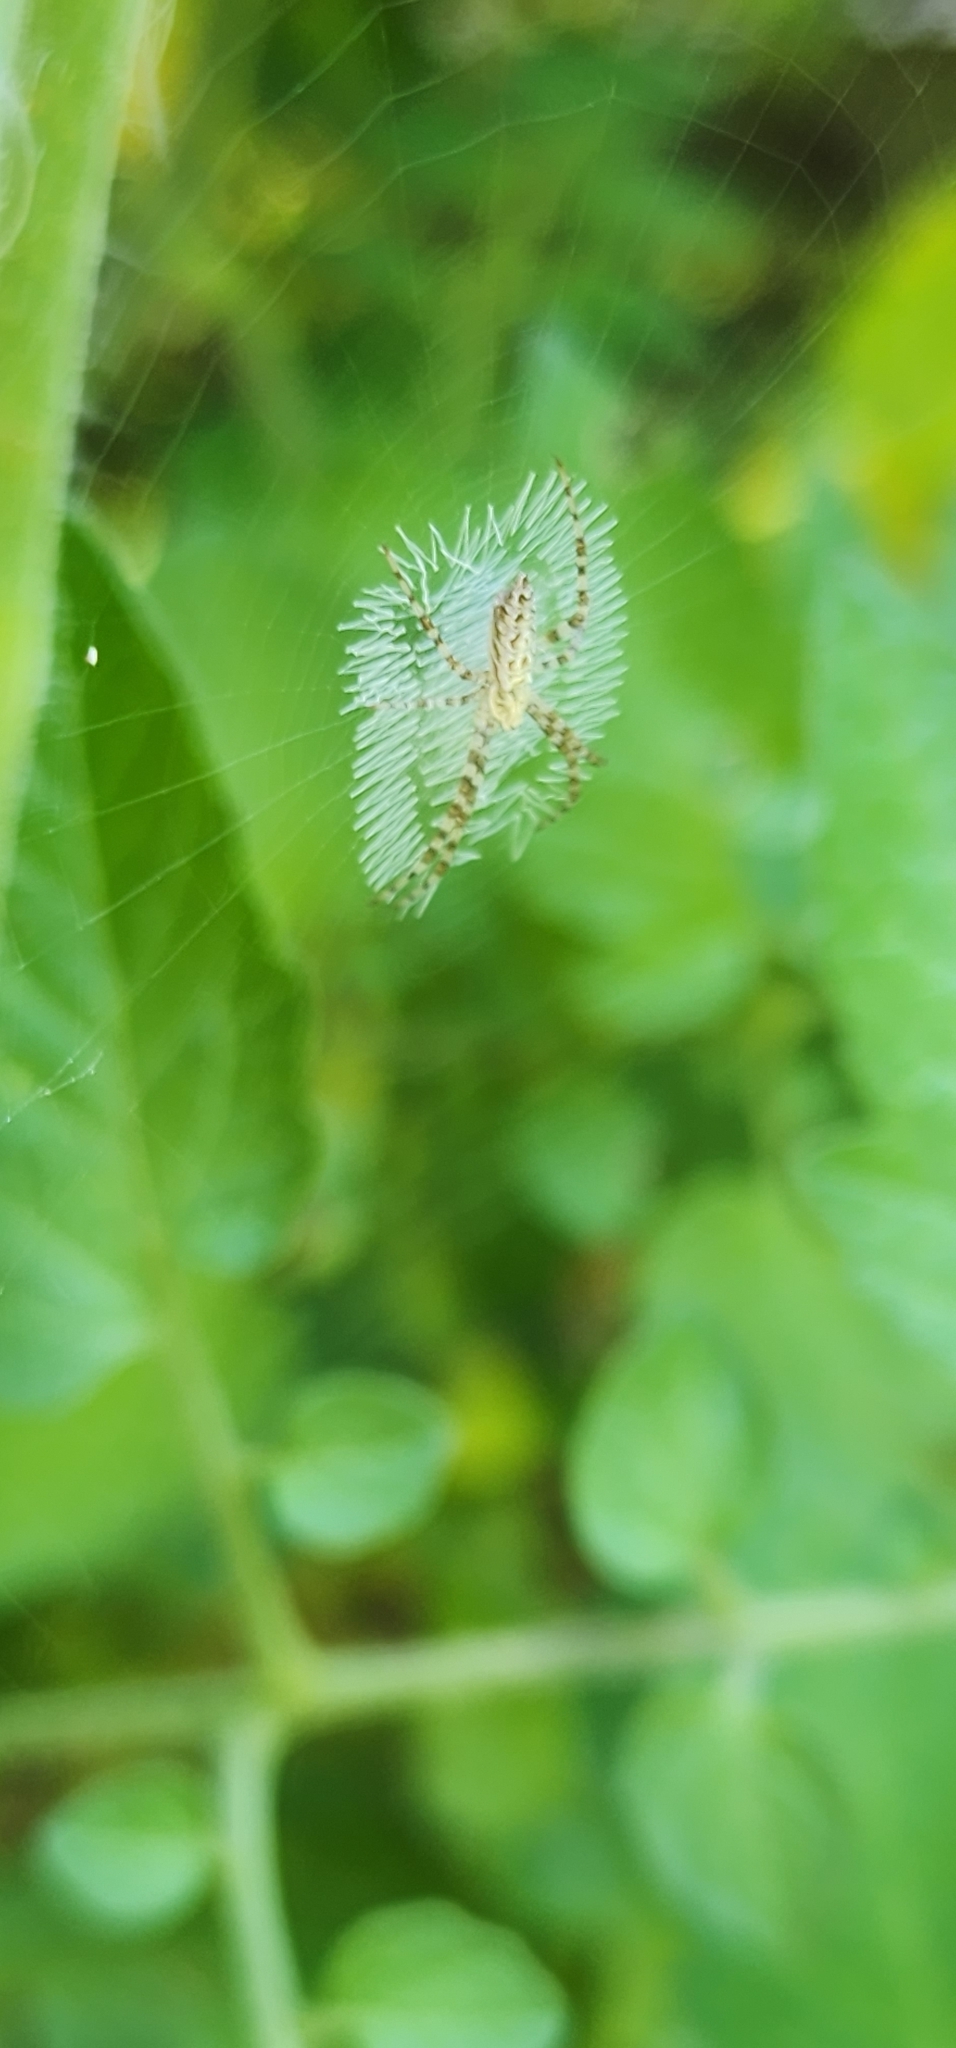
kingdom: Animalia
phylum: Arthropoda
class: Arachnida
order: Araneae
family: Araneidae
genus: Argiope
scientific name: Argiope aurantia
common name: Orb weavers
